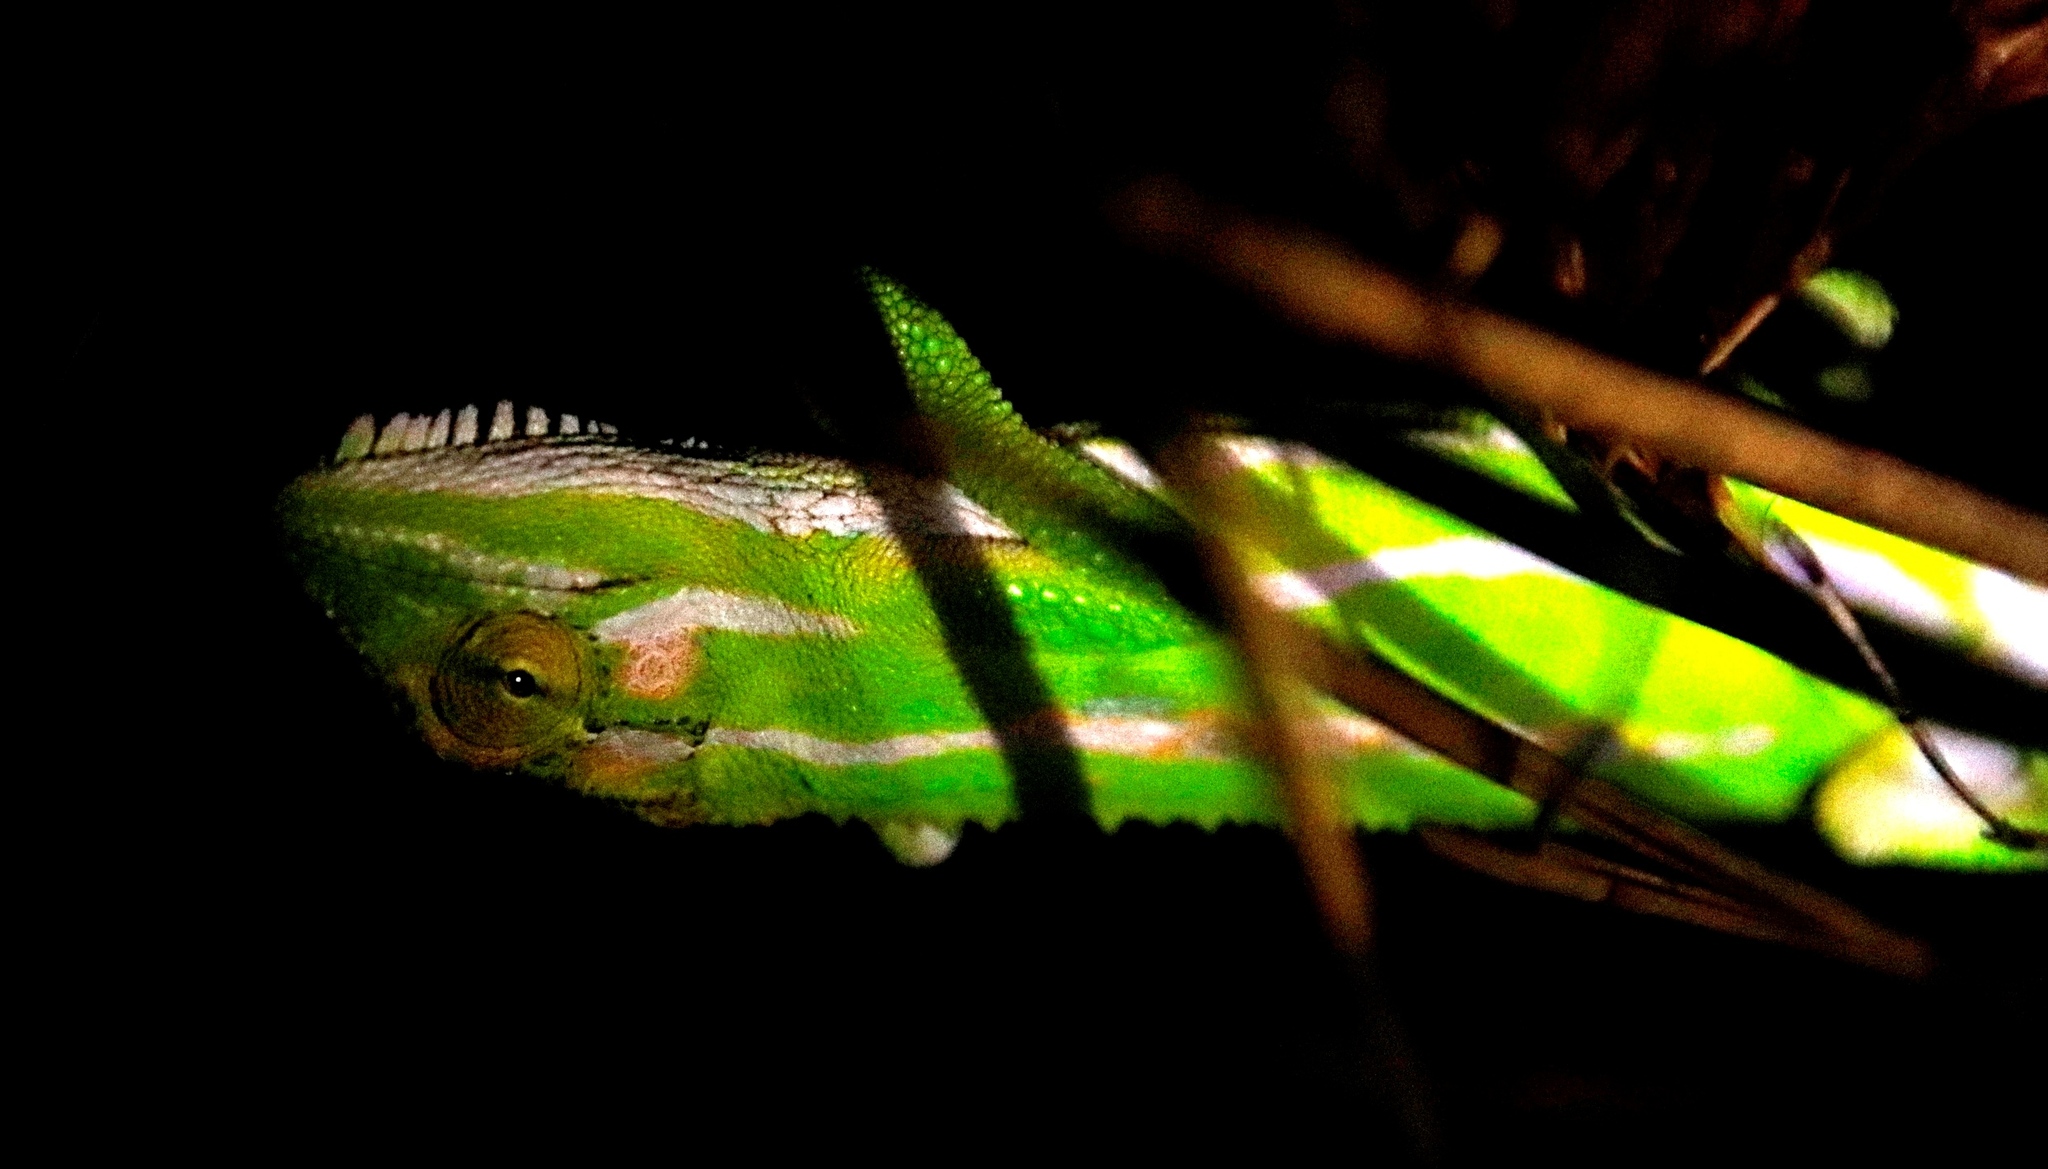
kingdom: Animalia
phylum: Chordata
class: Squamata
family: Chamaeleonidae
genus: Bradypodion
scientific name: Bradypodion pumilum
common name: Cape dwarf chameleon
